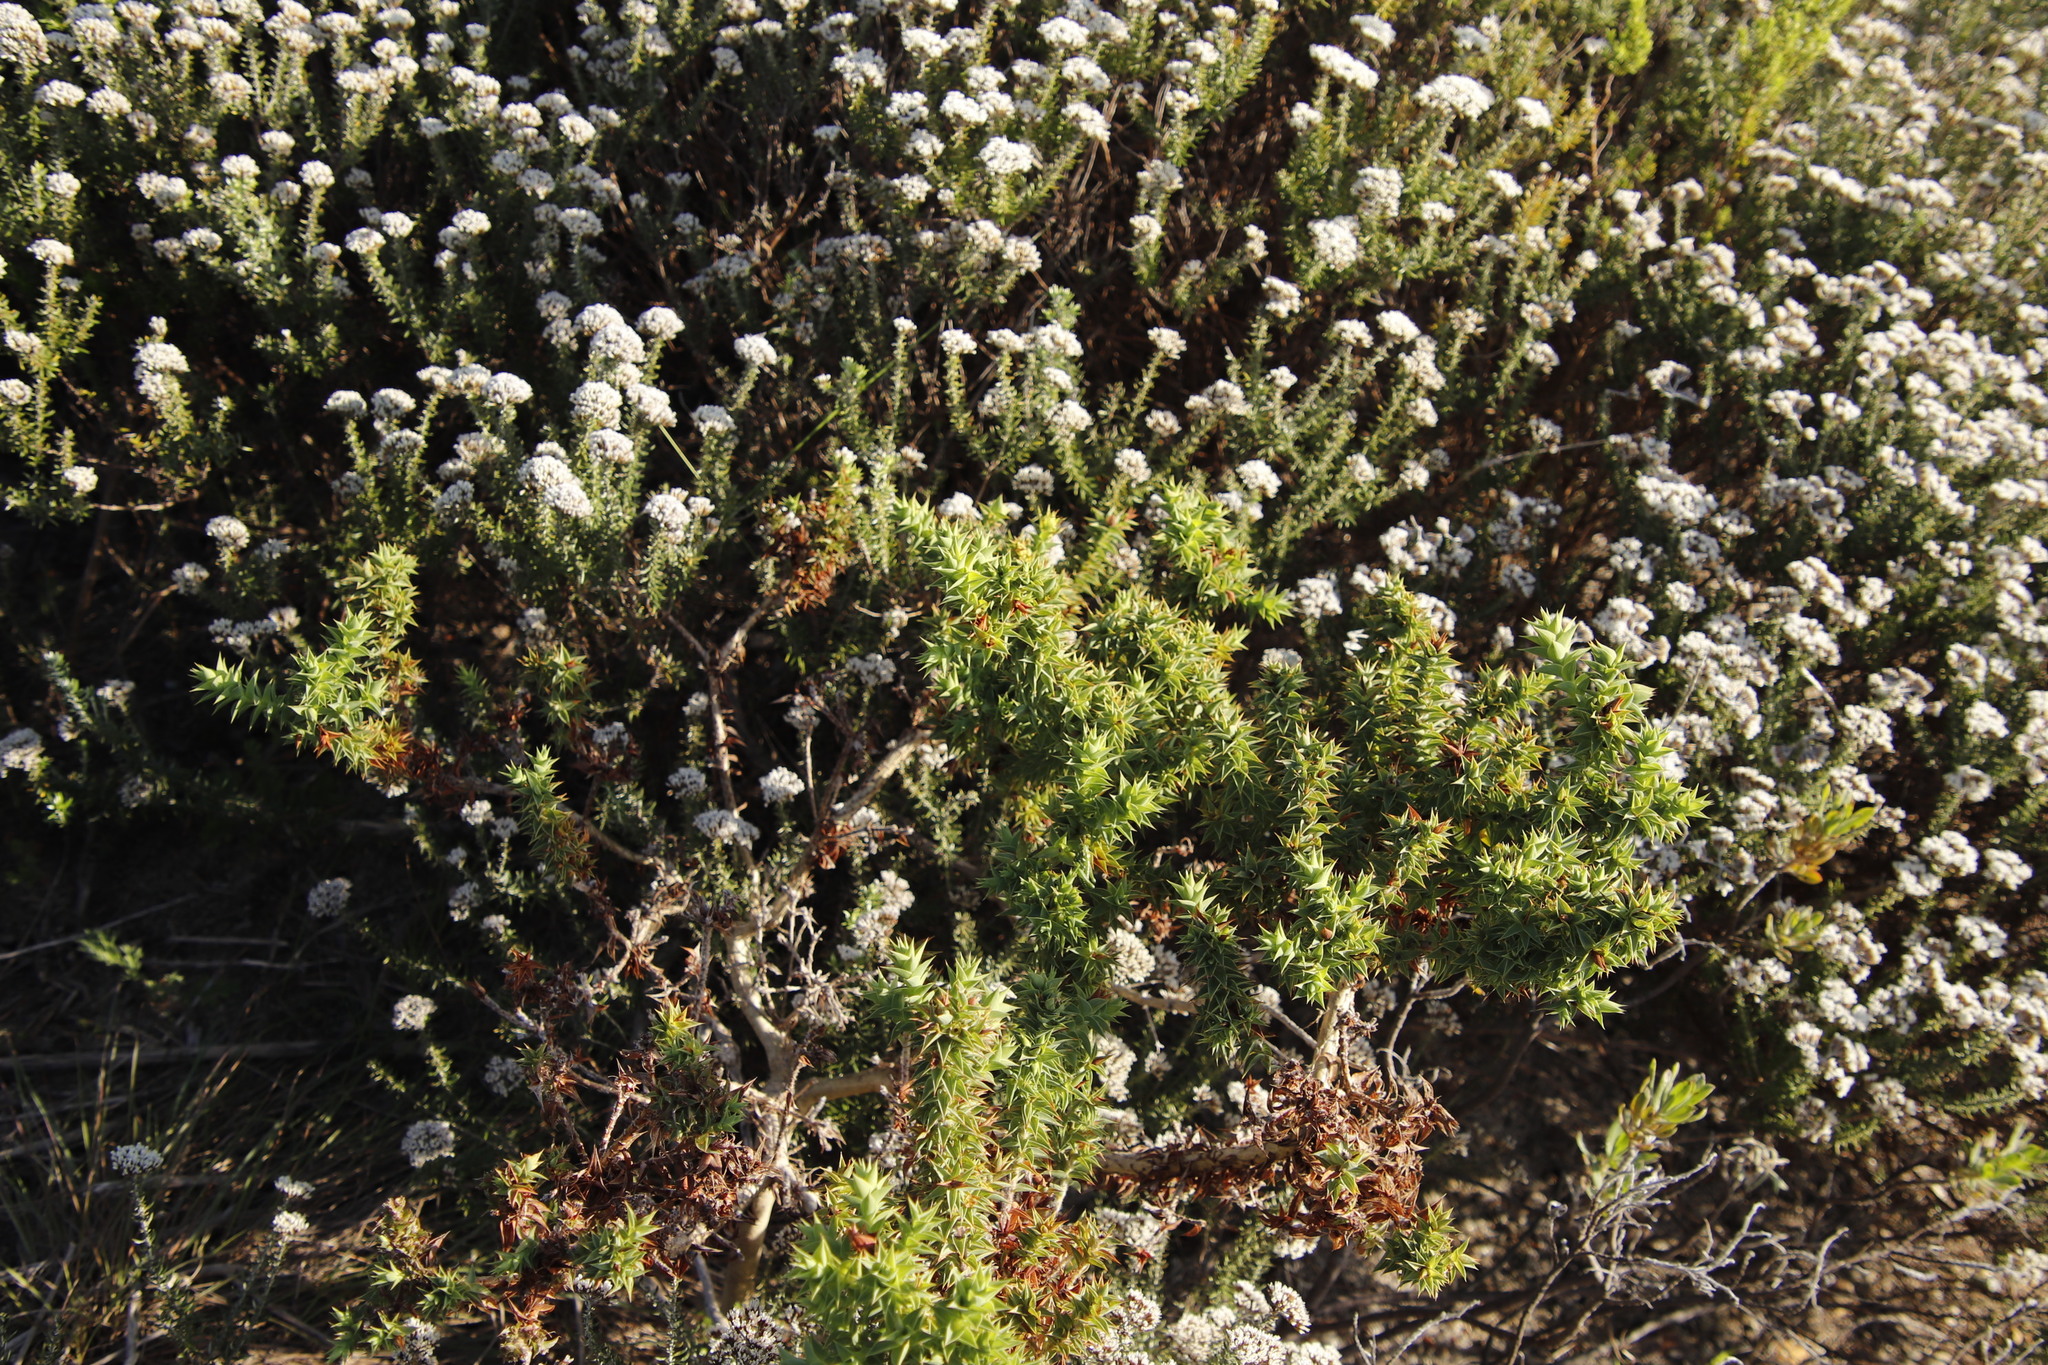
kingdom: Plantae
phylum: Tracheophyta
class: Magnoliopsida
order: Fabales
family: Fabaceae
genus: Aspalathus
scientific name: Aspalathus cordata
